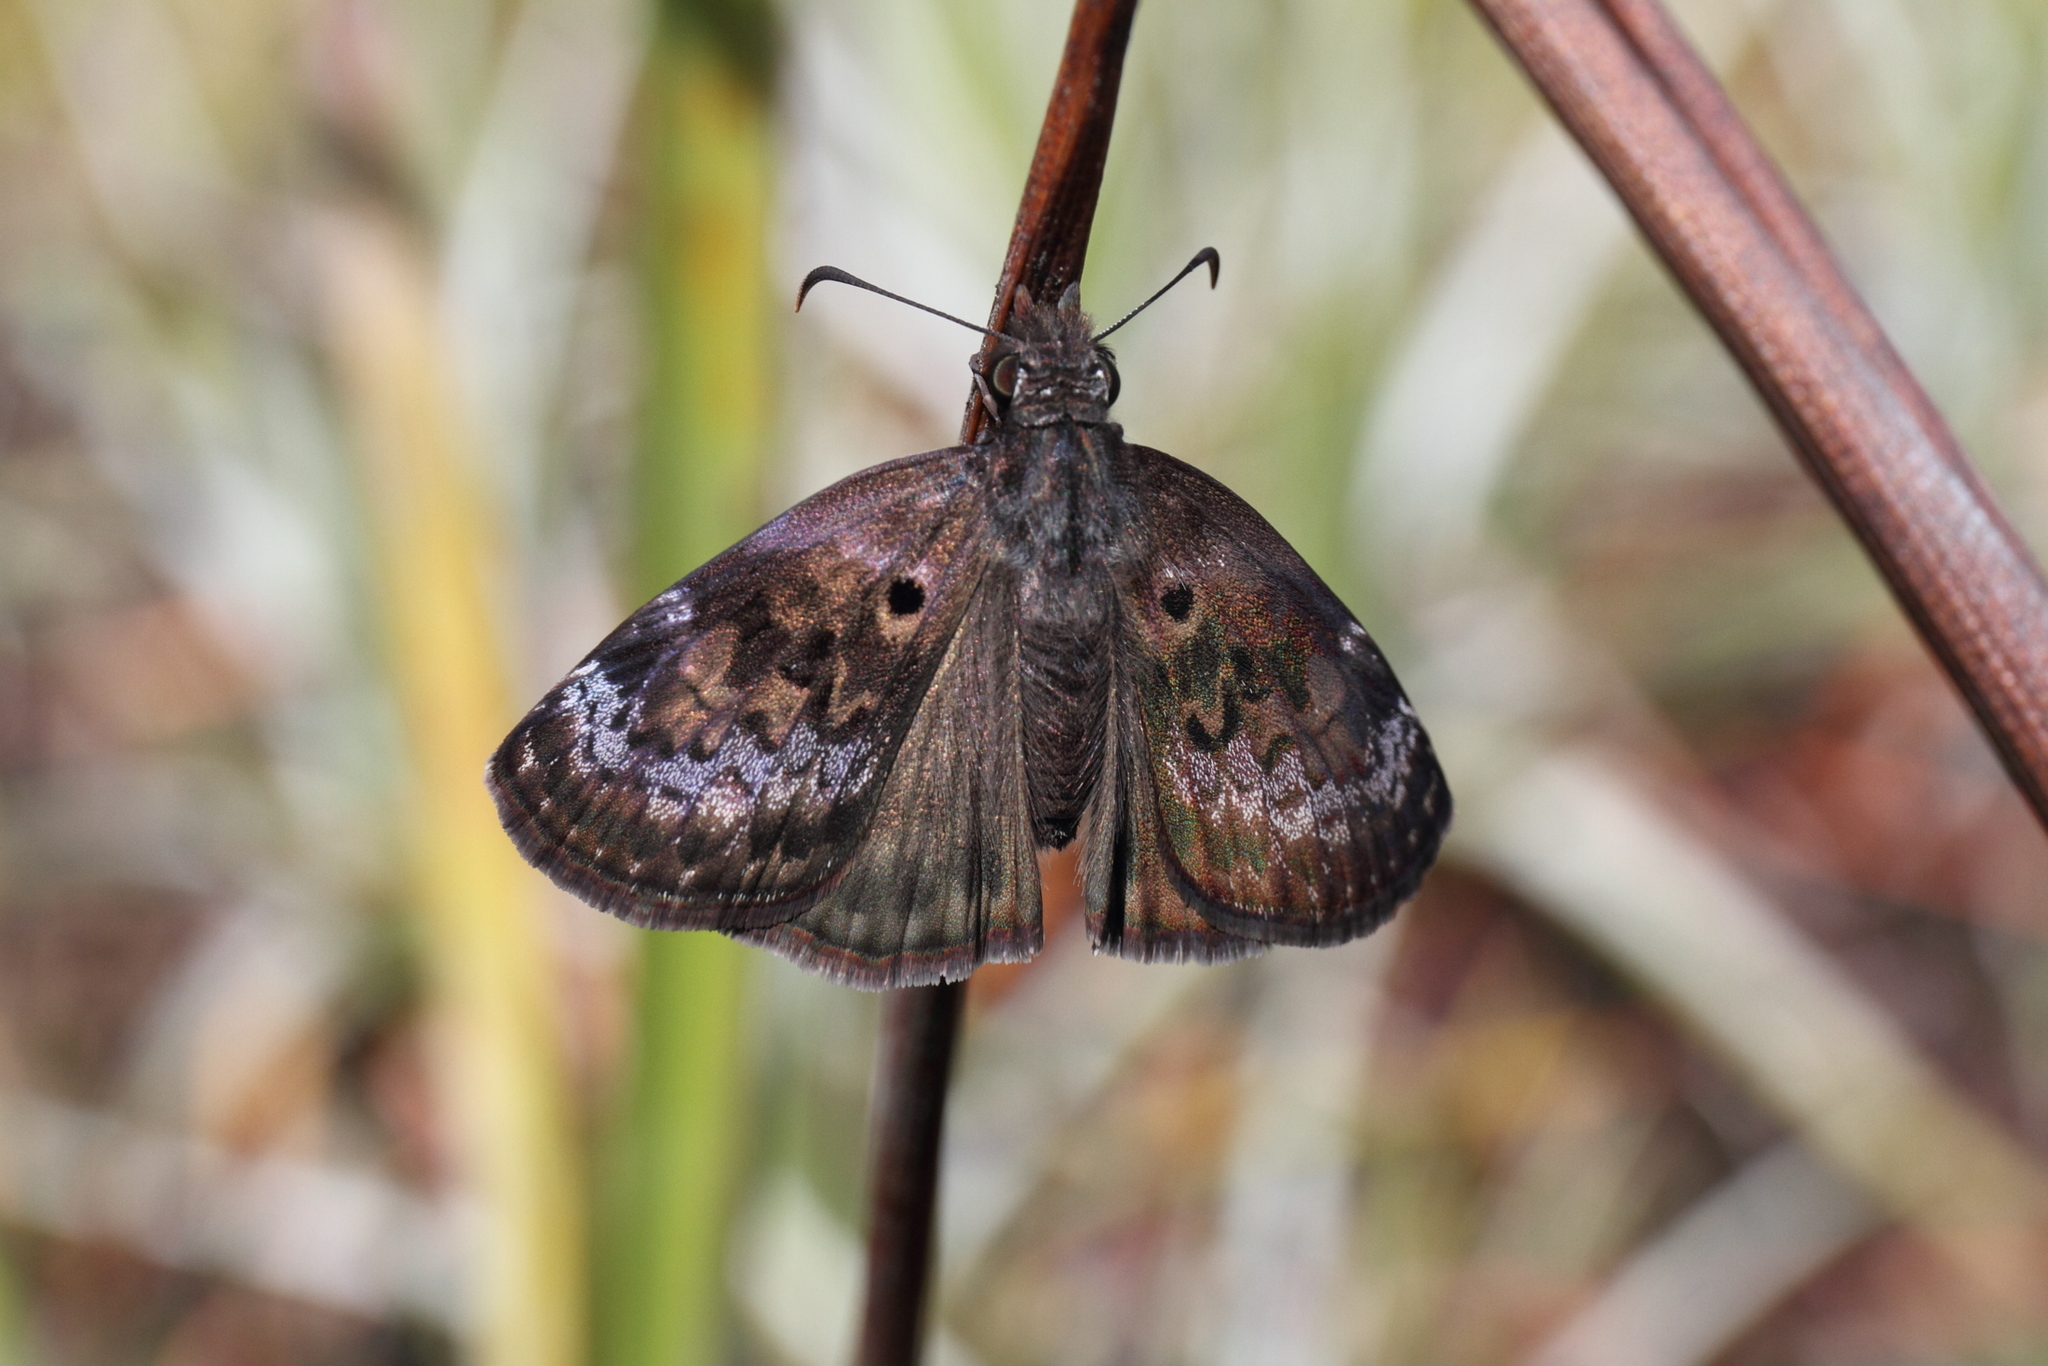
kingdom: Animalia
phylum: Arthropoda
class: Insecta
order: Lepidoptera
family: Hesperiidae
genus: Chiothion
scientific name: Chiothion
